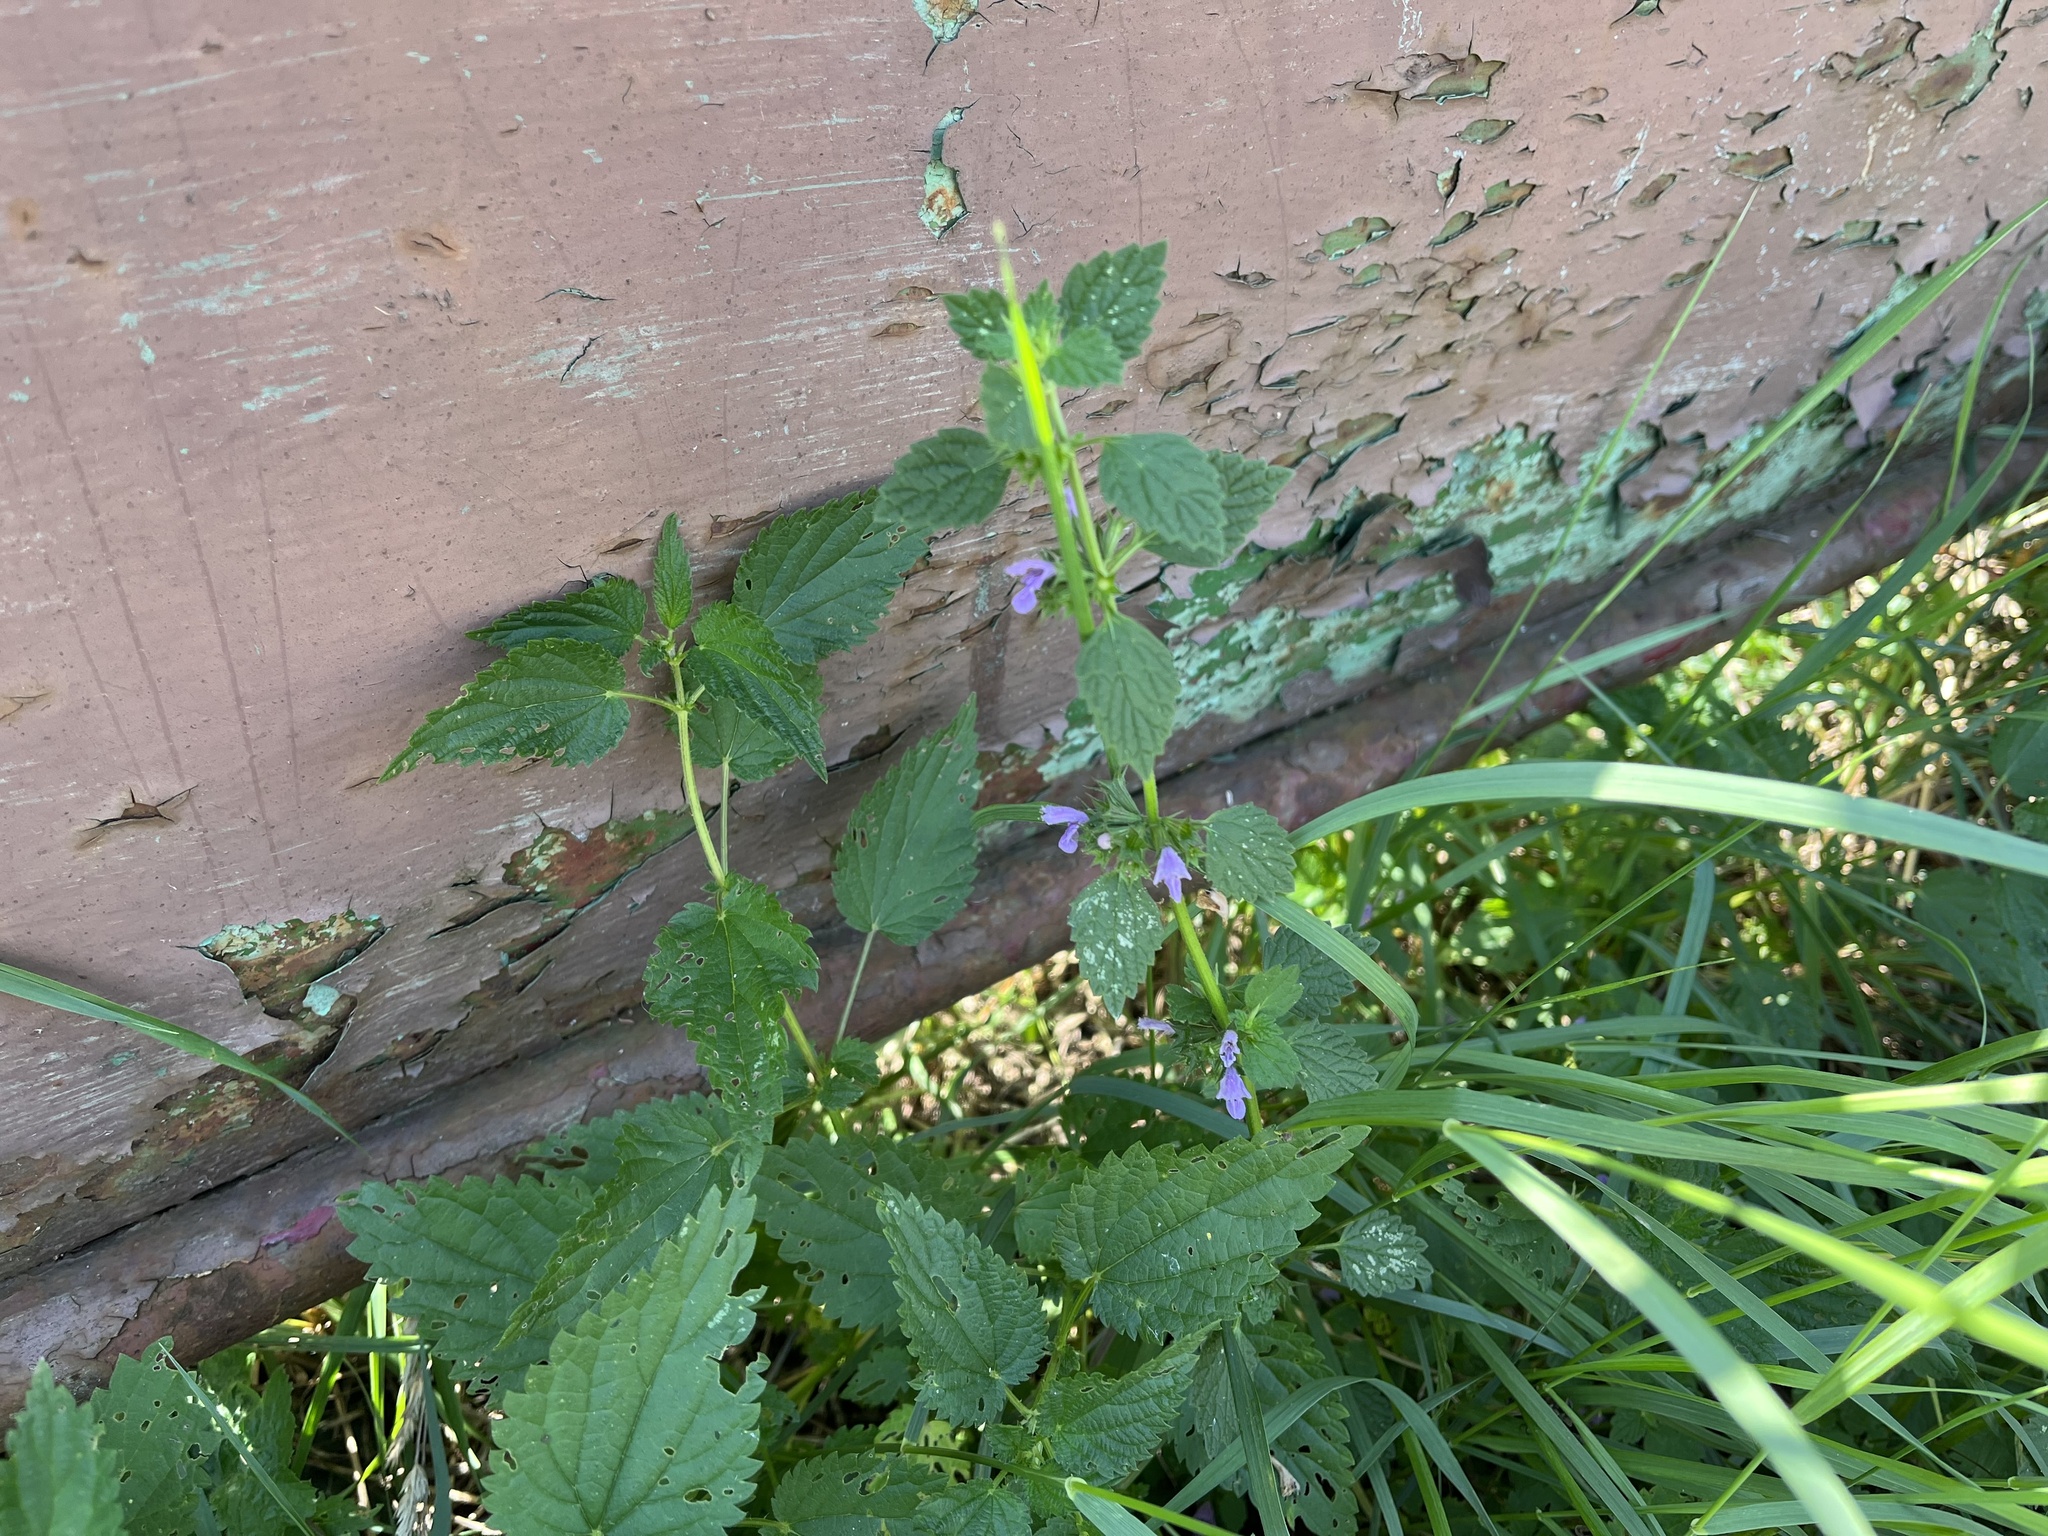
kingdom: Plantae
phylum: Tracheophyta
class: Magnoliopsida
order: Lamiales
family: Lamiaceae
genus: Ballota
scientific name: Ballota nigra
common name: Black horehound
